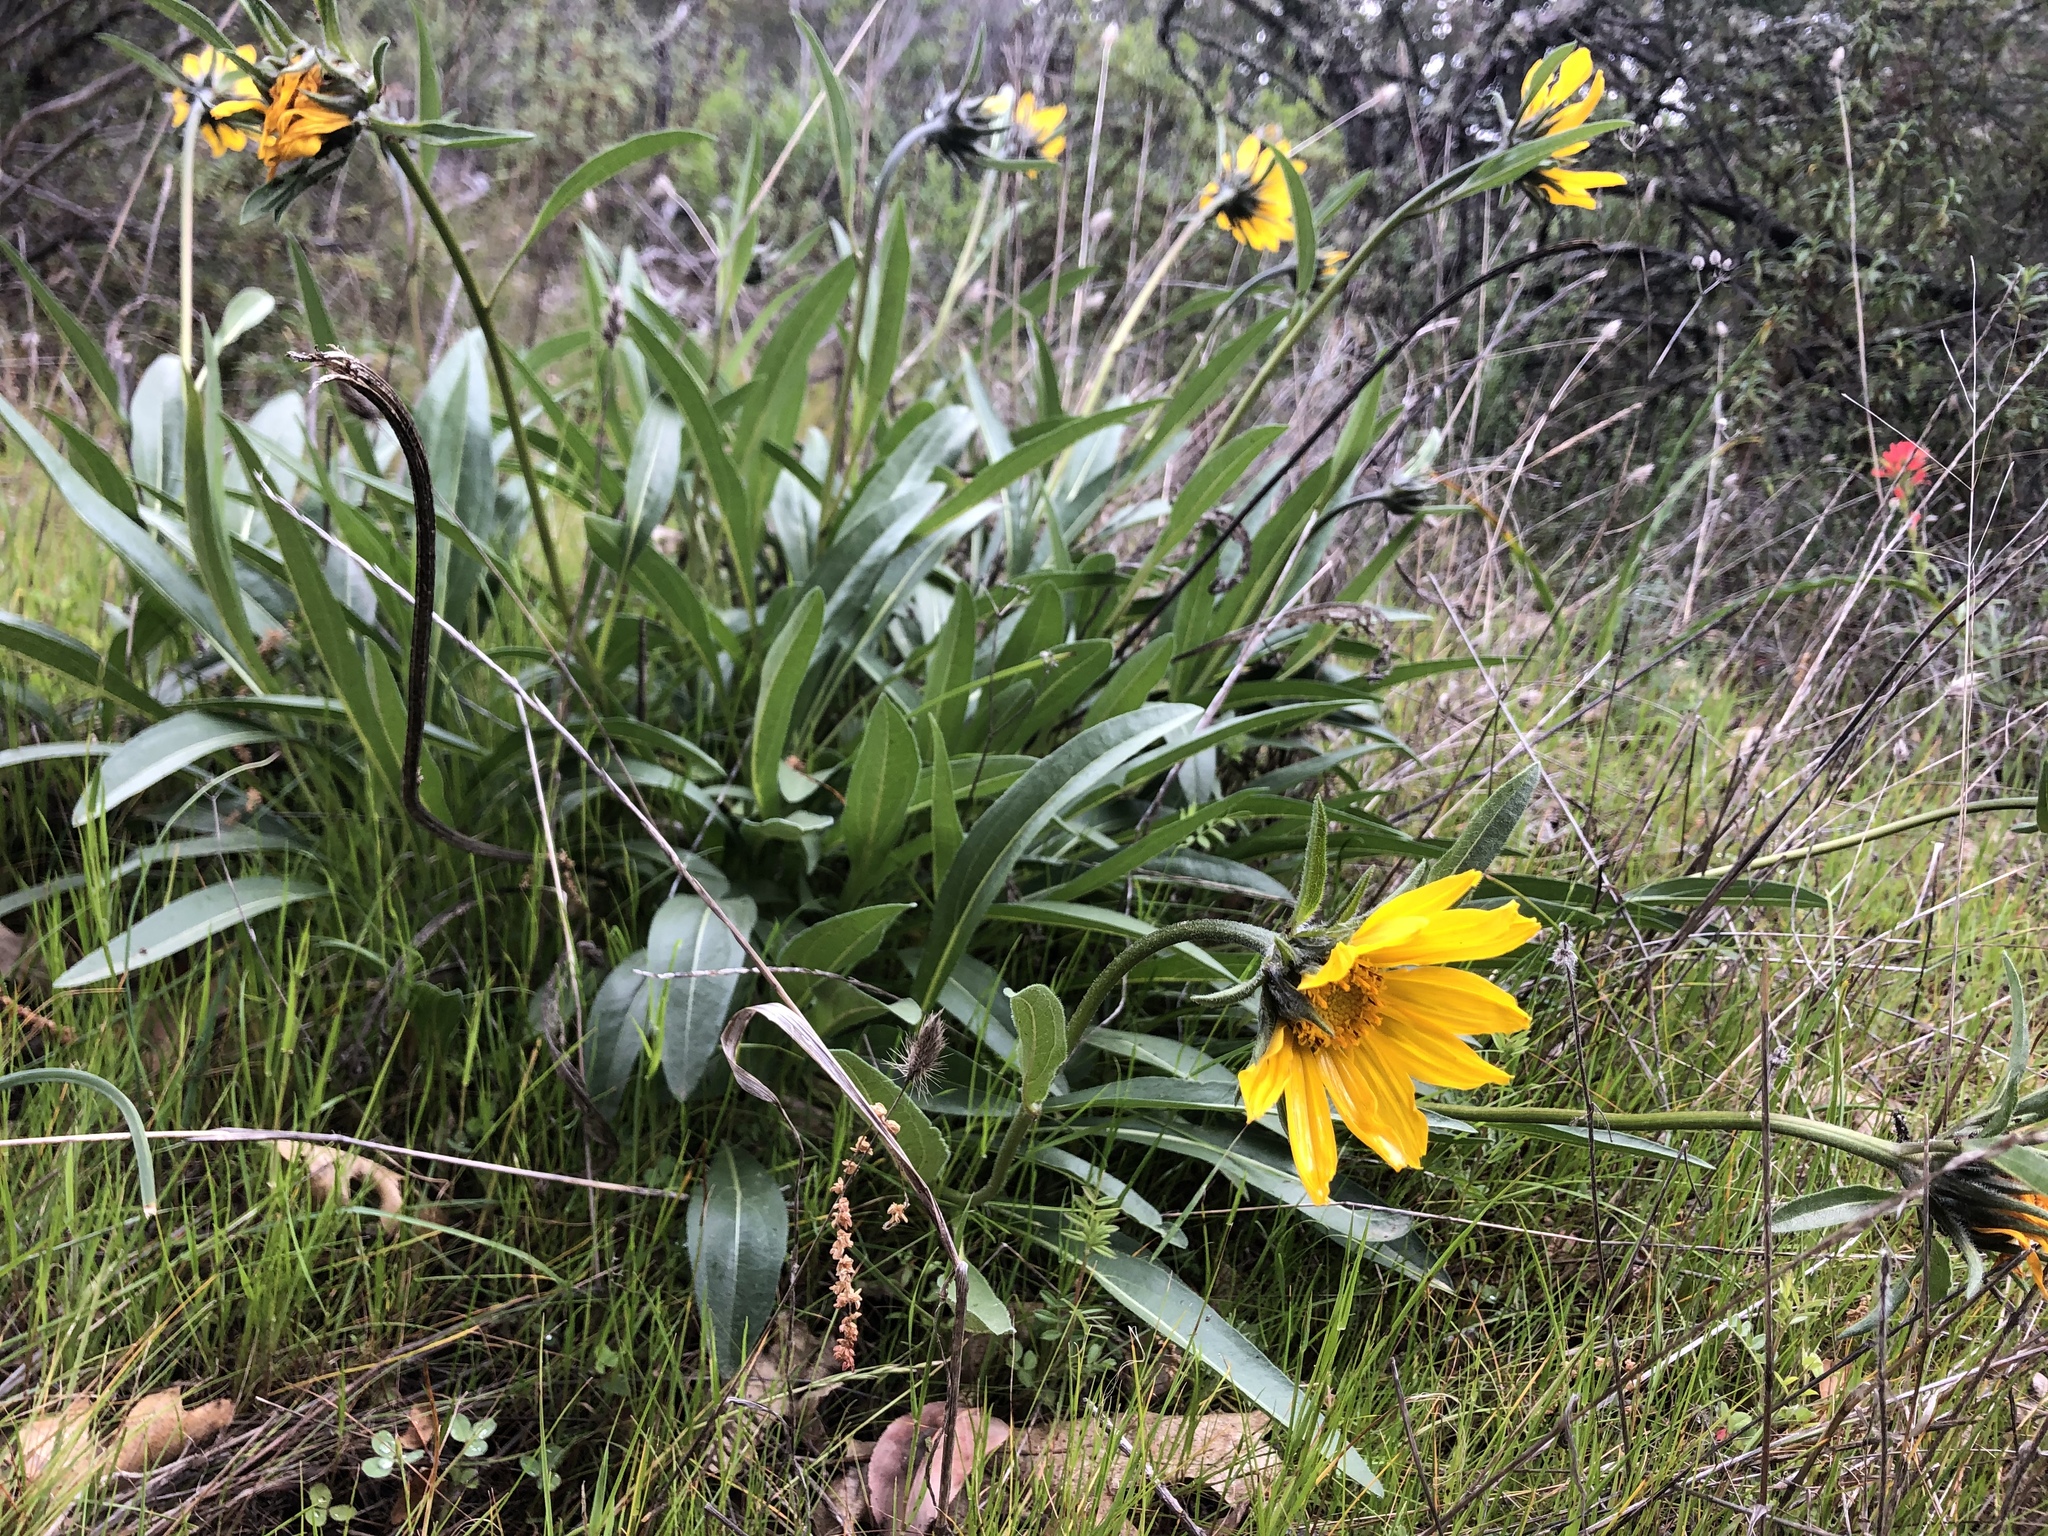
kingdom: Plantae
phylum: Tracheophyta
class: Magnoliopsida
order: Asterales
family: Asteraceae
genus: Wyethia
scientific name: Wyethia angustifolia
